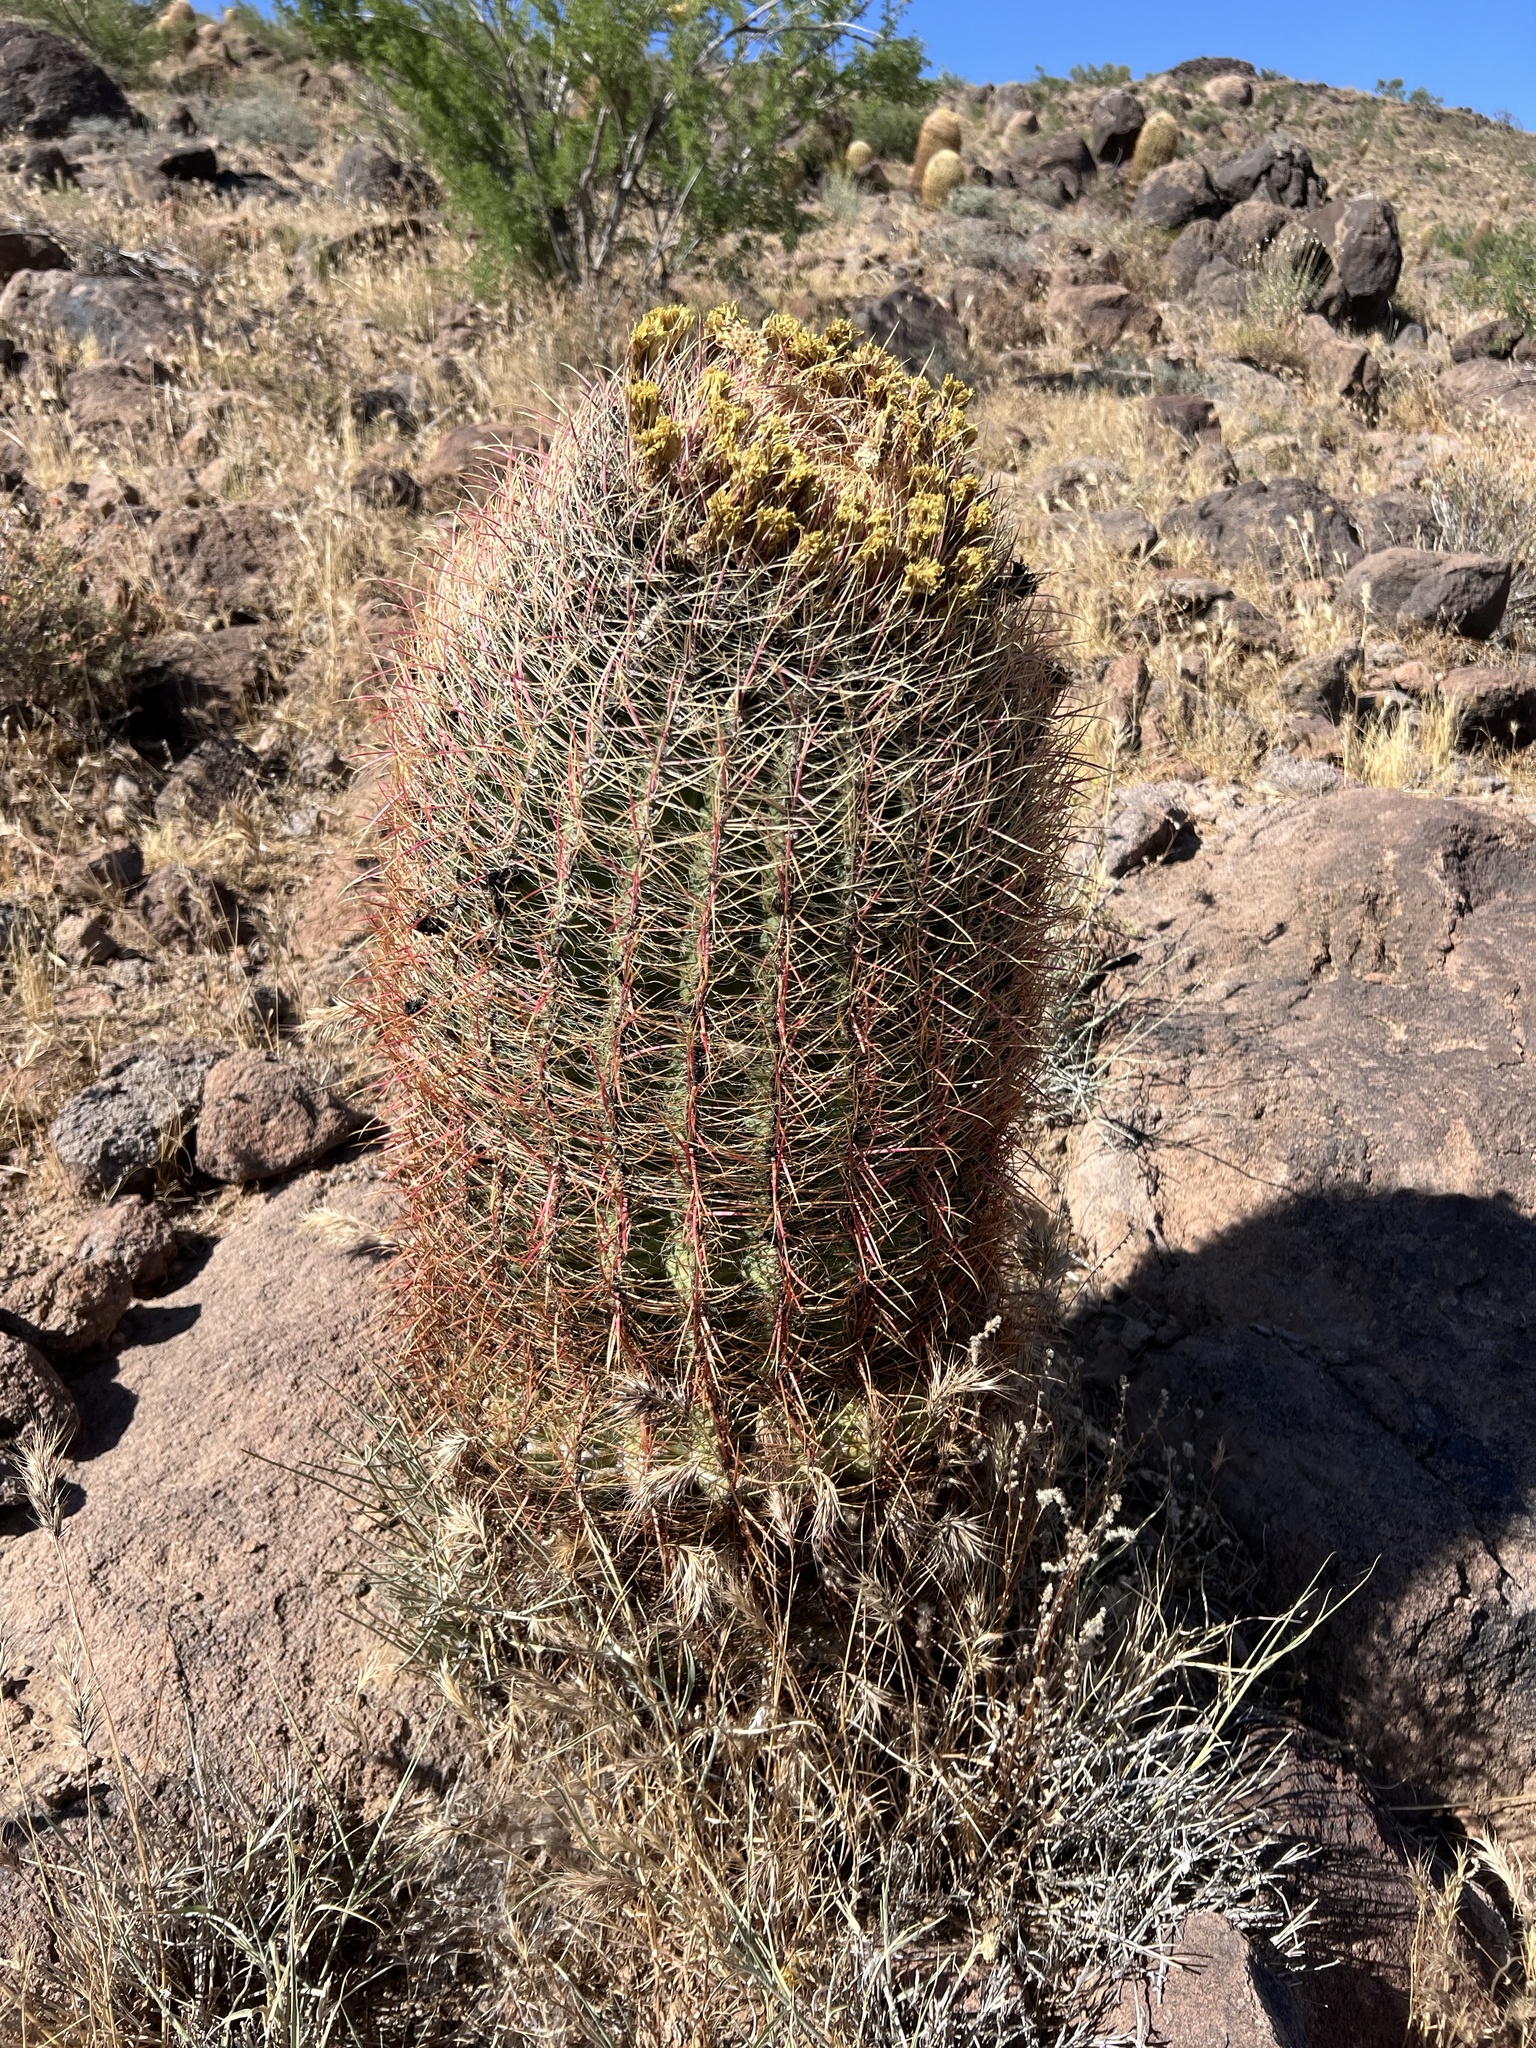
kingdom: Plantae
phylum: Tracheophyta
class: Magnoliopsida
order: Caryophyllales
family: Cactaceae
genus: Ferocactus
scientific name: Ferocactus cylindraceus
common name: California barrel cactus
